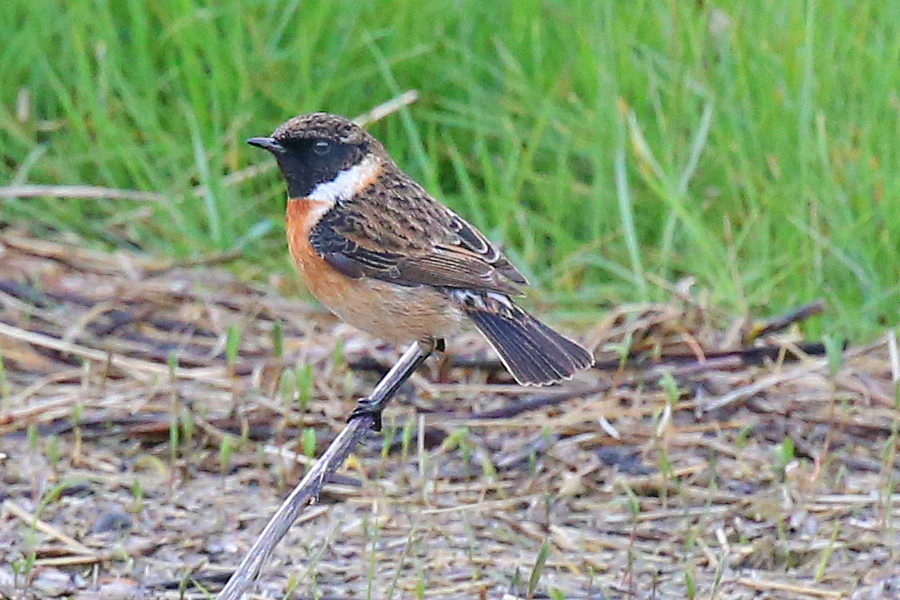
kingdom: Animalia
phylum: Chordata
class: Aves
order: Passeriformes
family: Muscicapidae
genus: Saxicola
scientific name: Saxicola rubicola
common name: European stonechat
